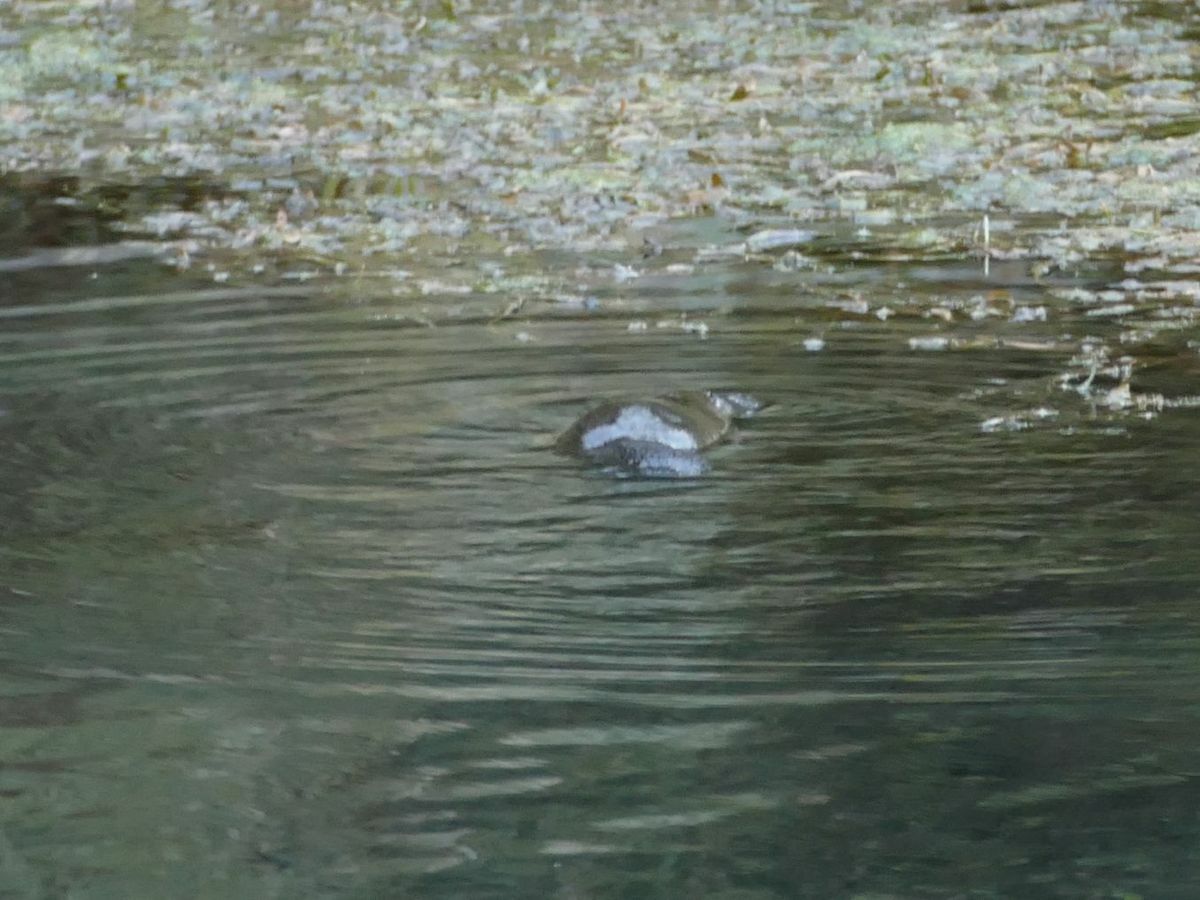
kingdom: Animalia
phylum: Chordata
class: Mammalia
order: Monotremata
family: Ornithorhynchidae
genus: Ornithorhynchus
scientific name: Ornithorhynchus anatinus
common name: Platypus
